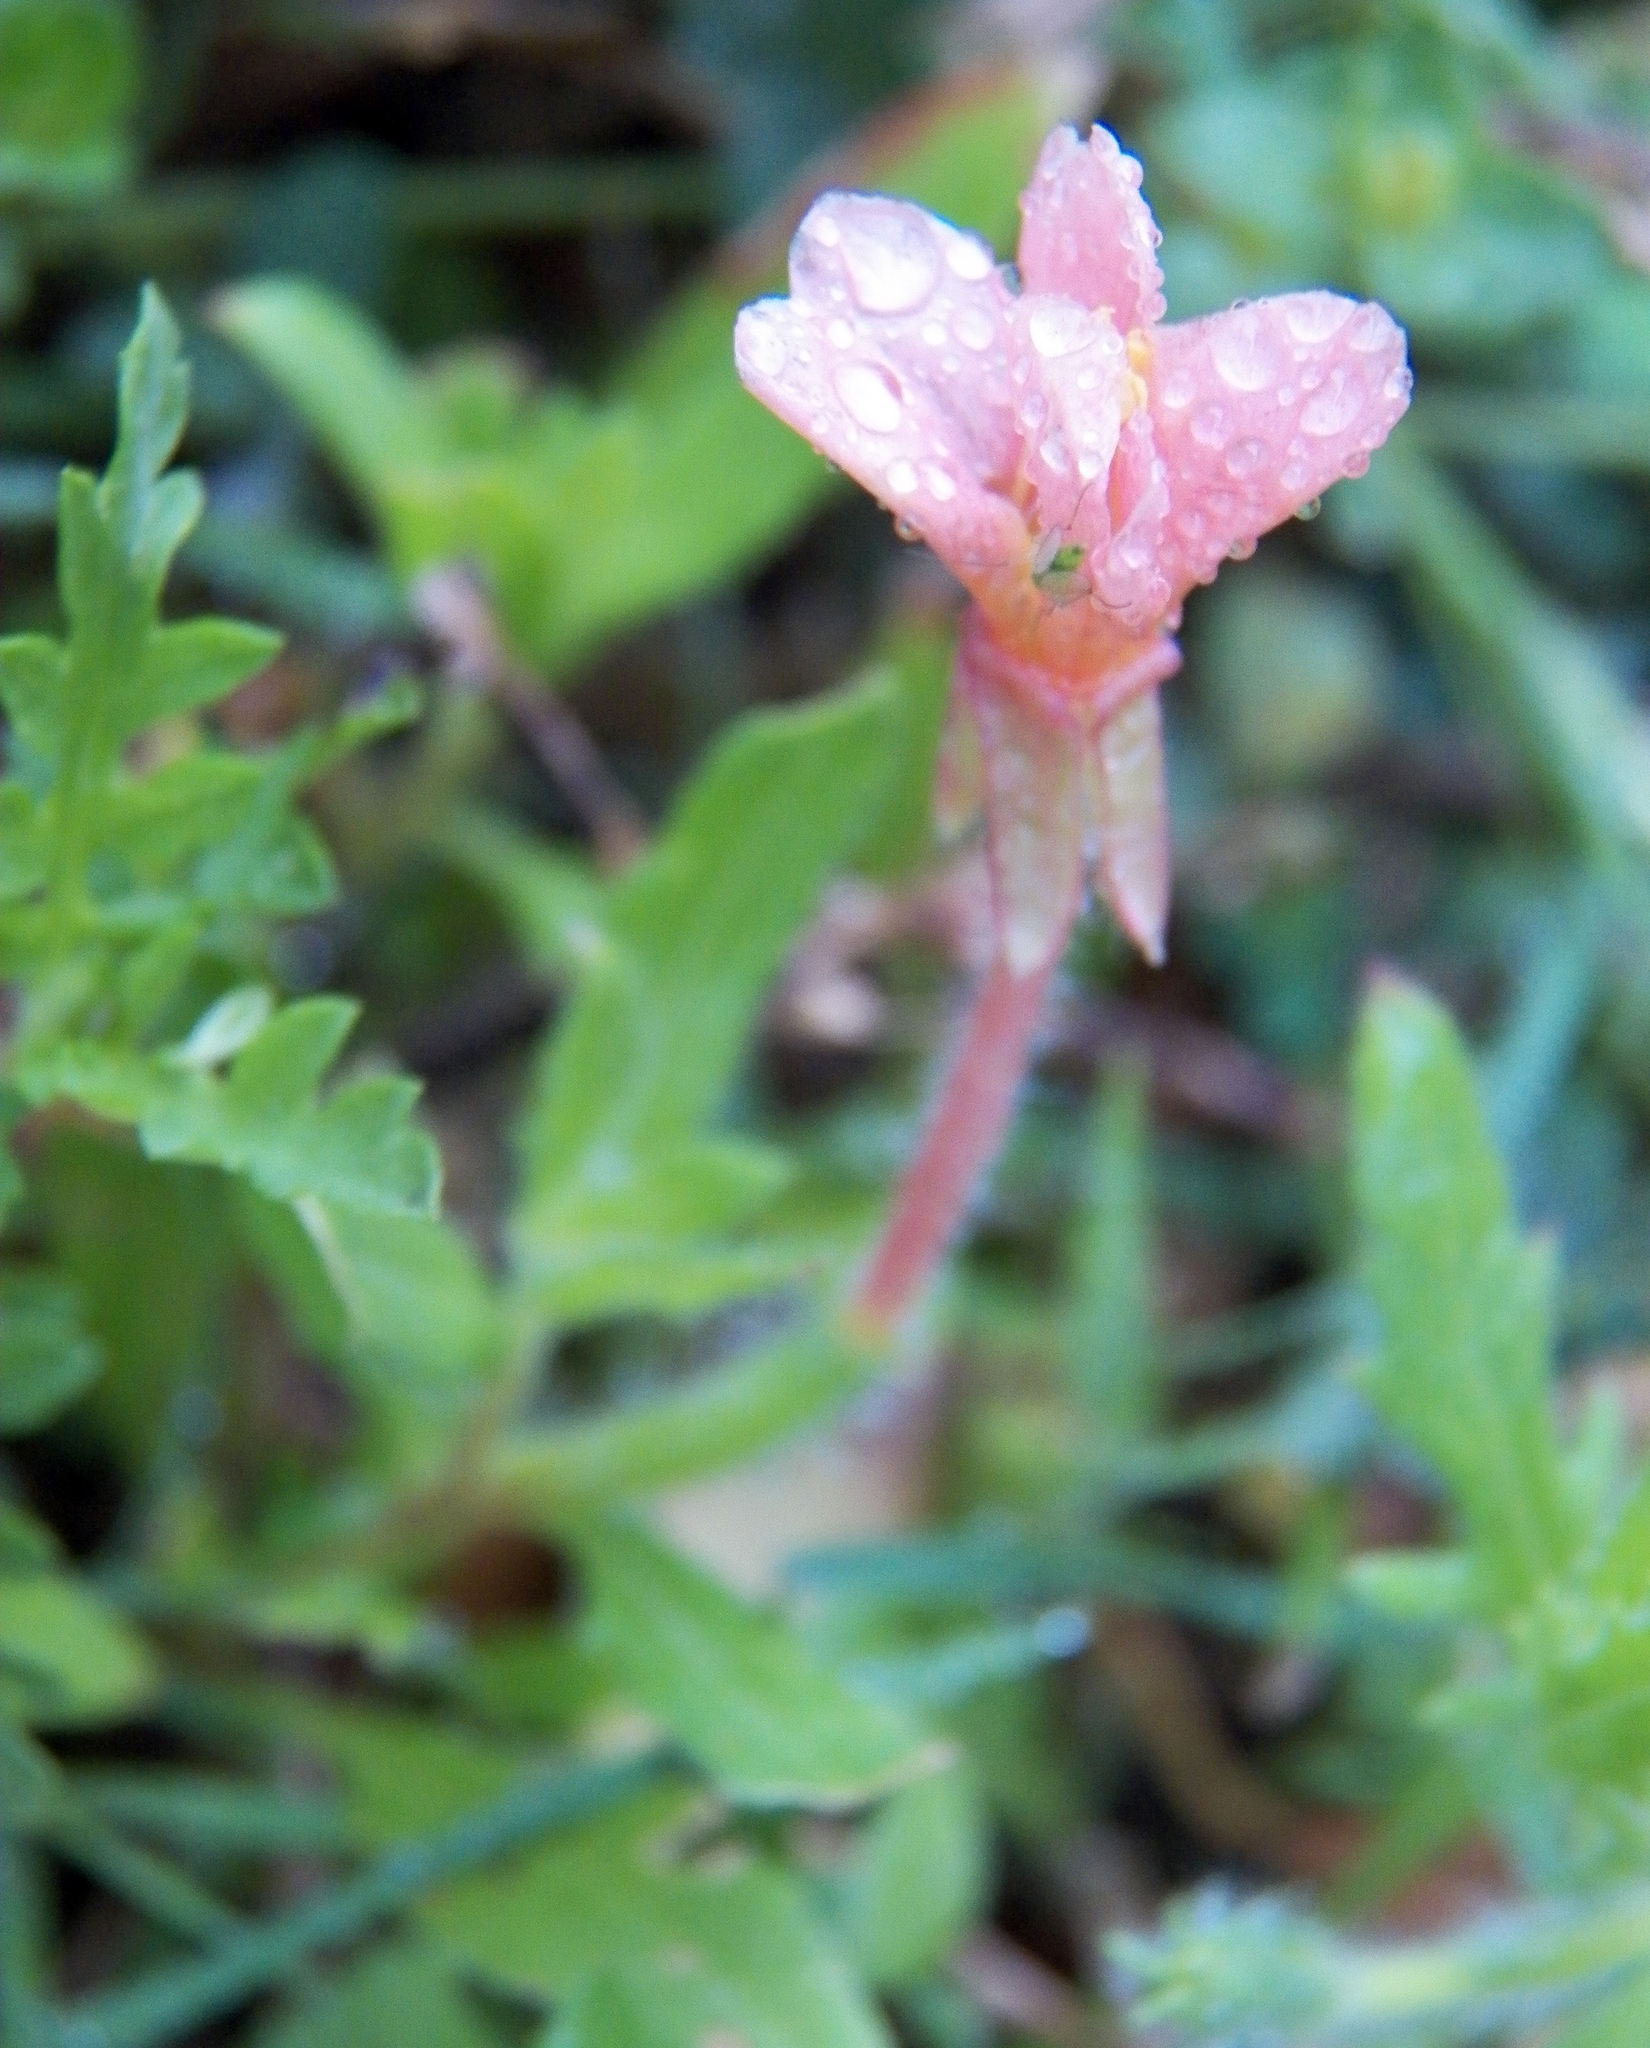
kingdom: Plantae
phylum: Tracheophyta
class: Magnoliopsida
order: Myrtales
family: Onagraceae
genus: Oenothera
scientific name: Oenothera laciniata
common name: Cut-leaved evening-primrose
